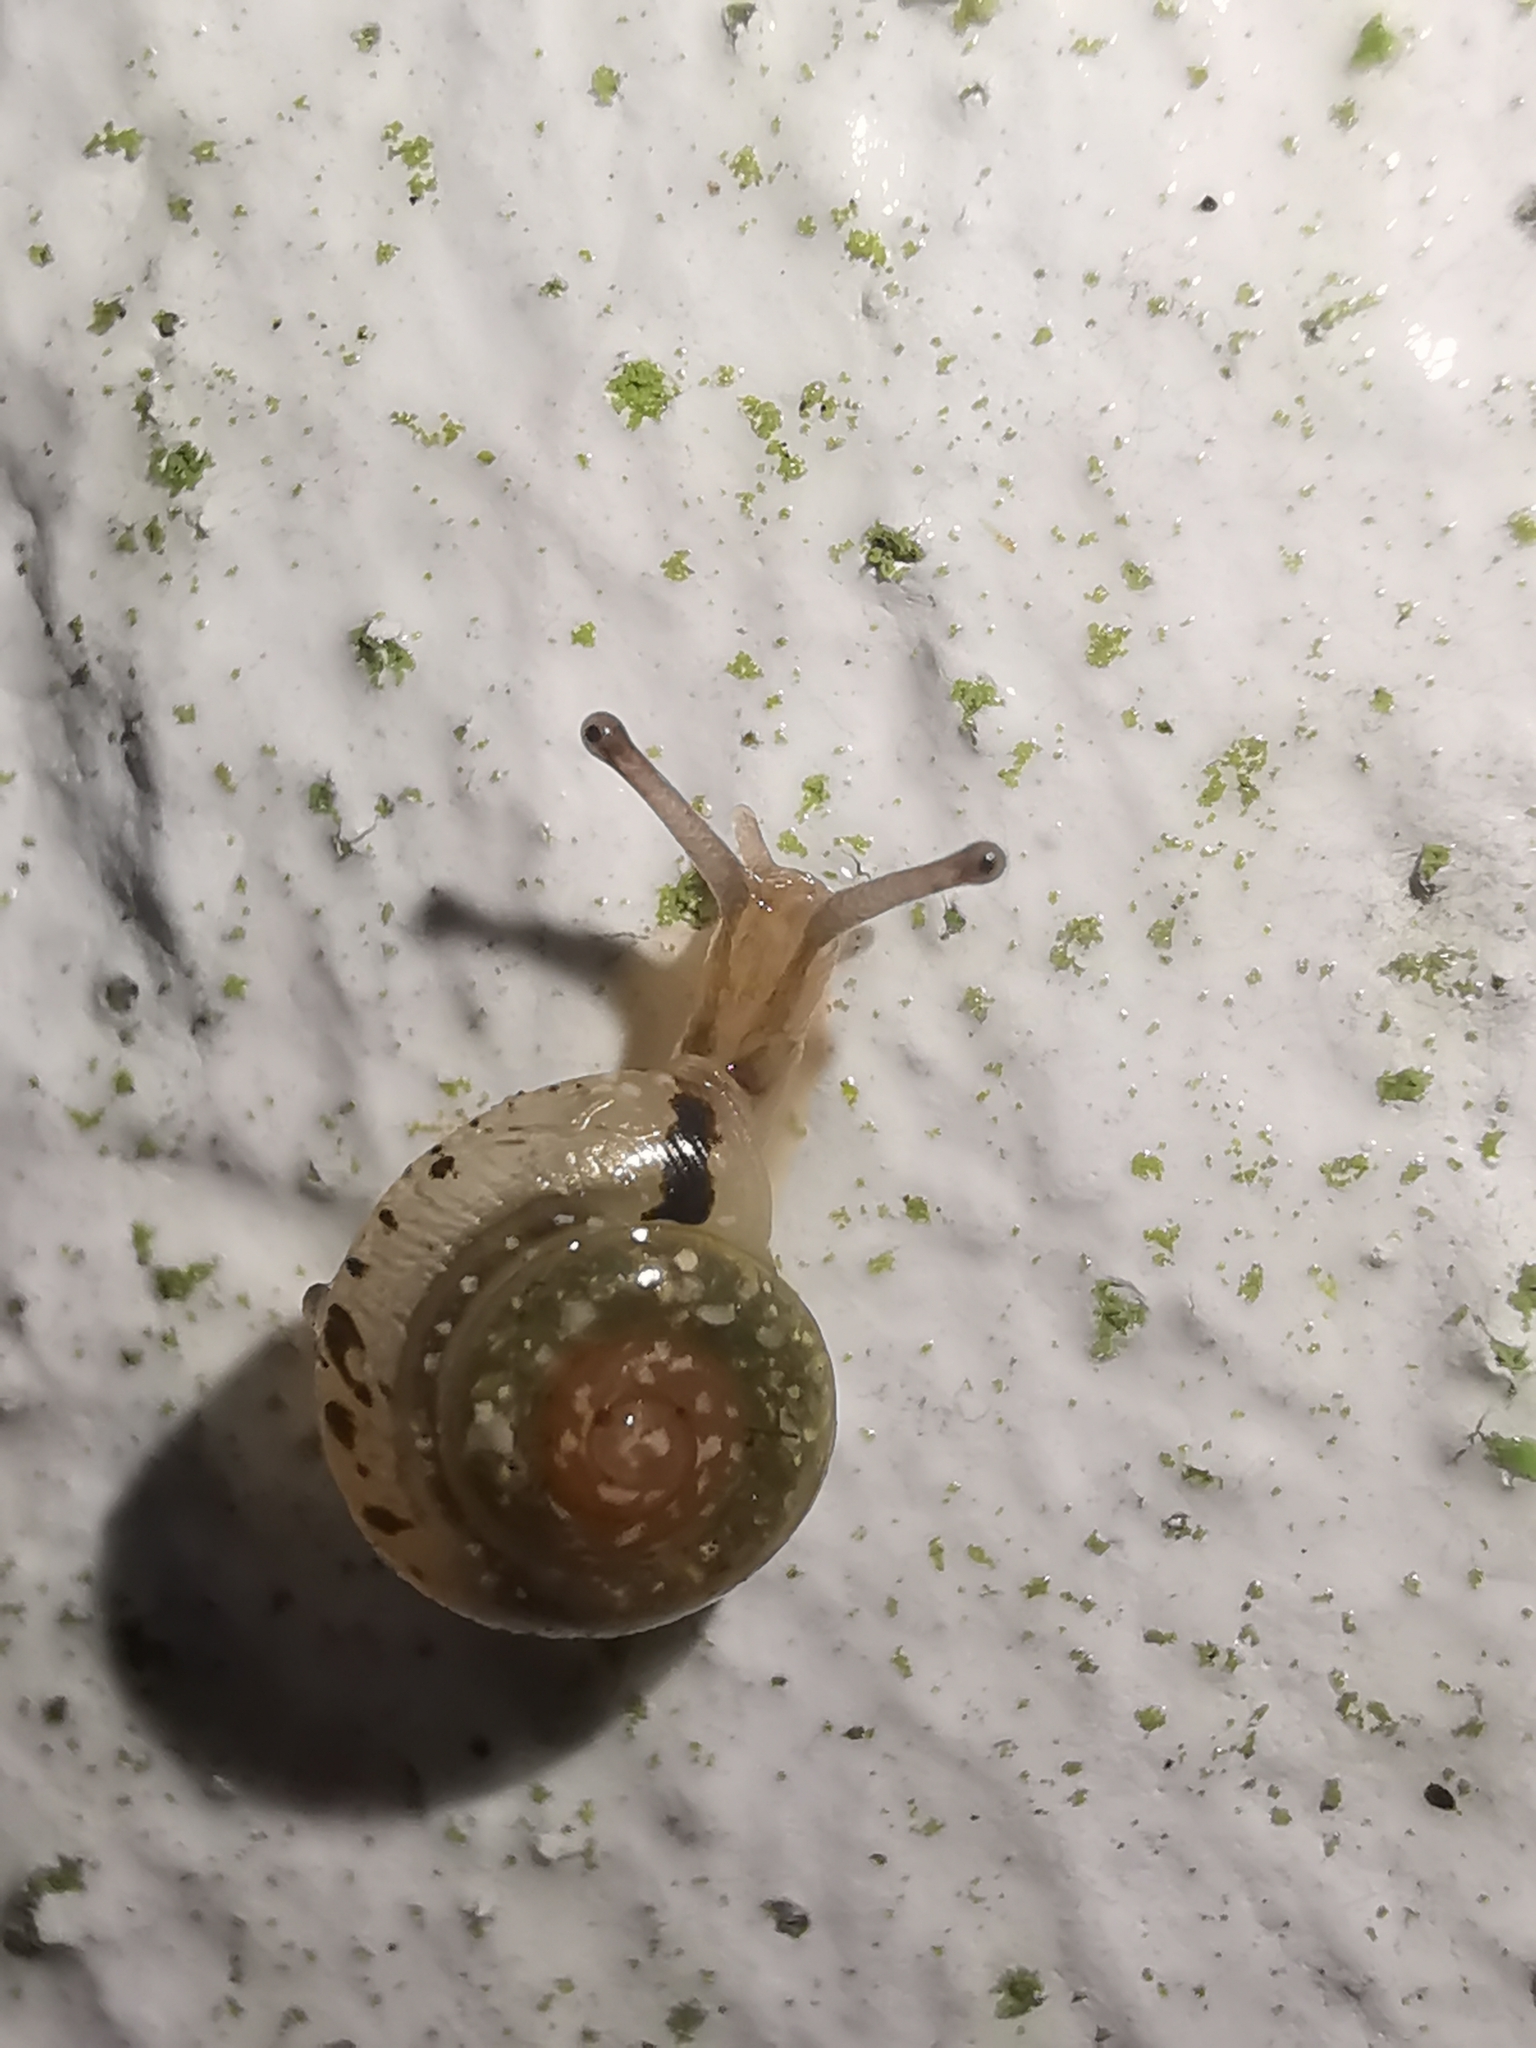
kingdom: Animalia
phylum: Mollusca
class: Gastropoda
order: Stylommatophora
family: Hygromiidae
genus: Hygromia
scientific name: Hygromia cinctella
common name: Girdled snail
